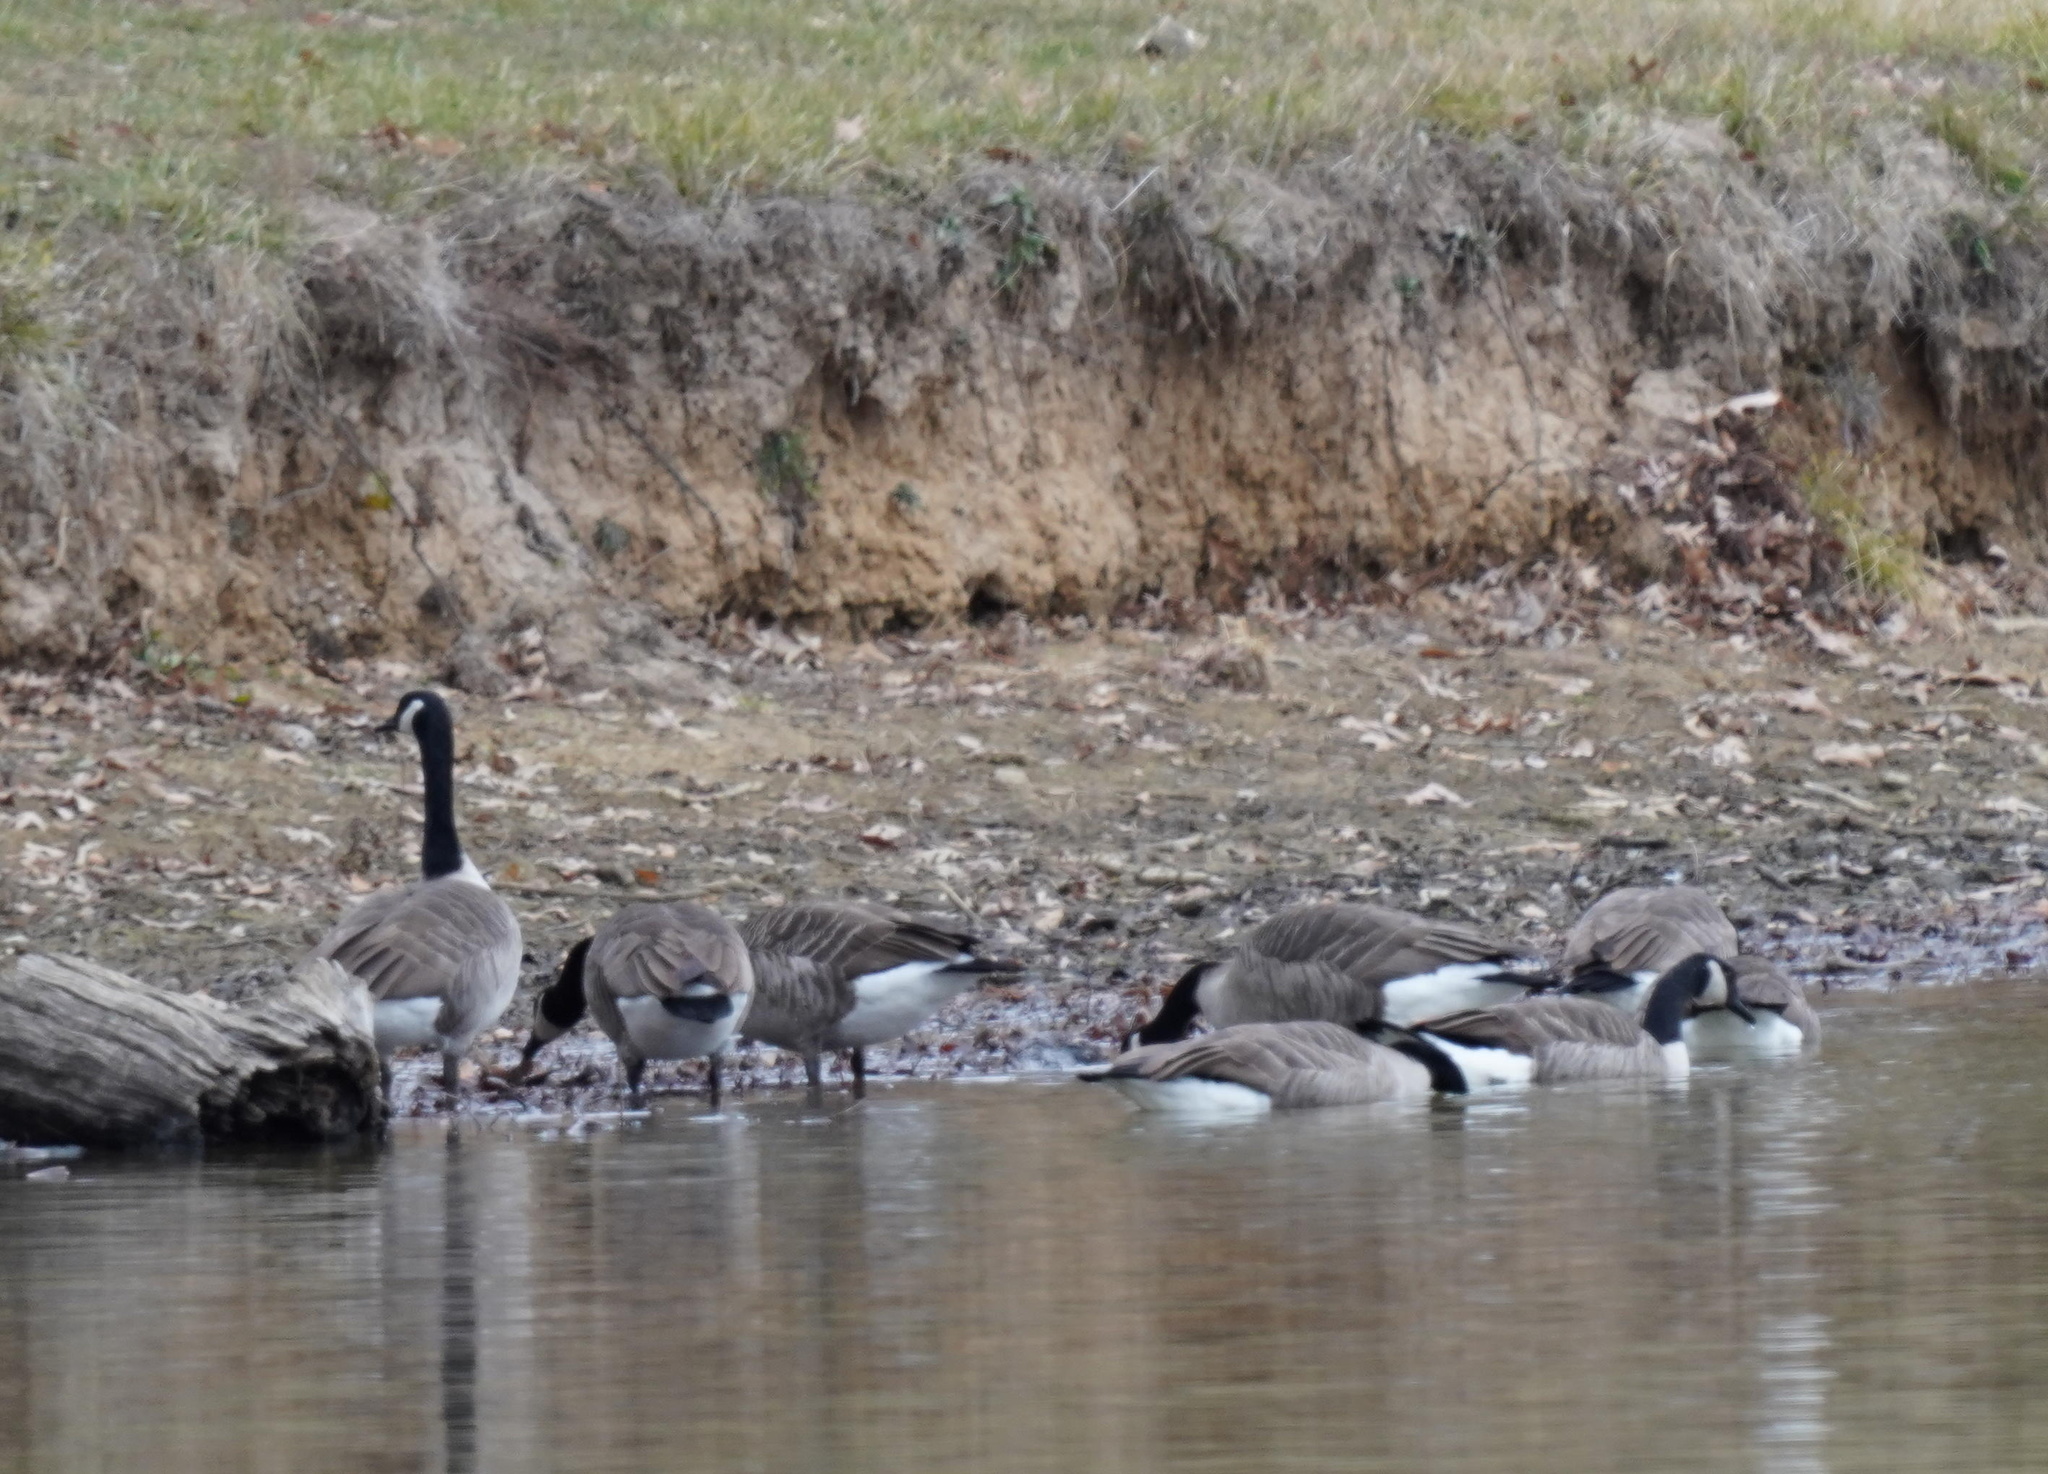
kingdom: Animalia
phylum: Chordata
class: Aves
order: Anseriformes
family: Anatidae
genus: Branta
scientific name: Branta canadensis
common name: Canada goose
